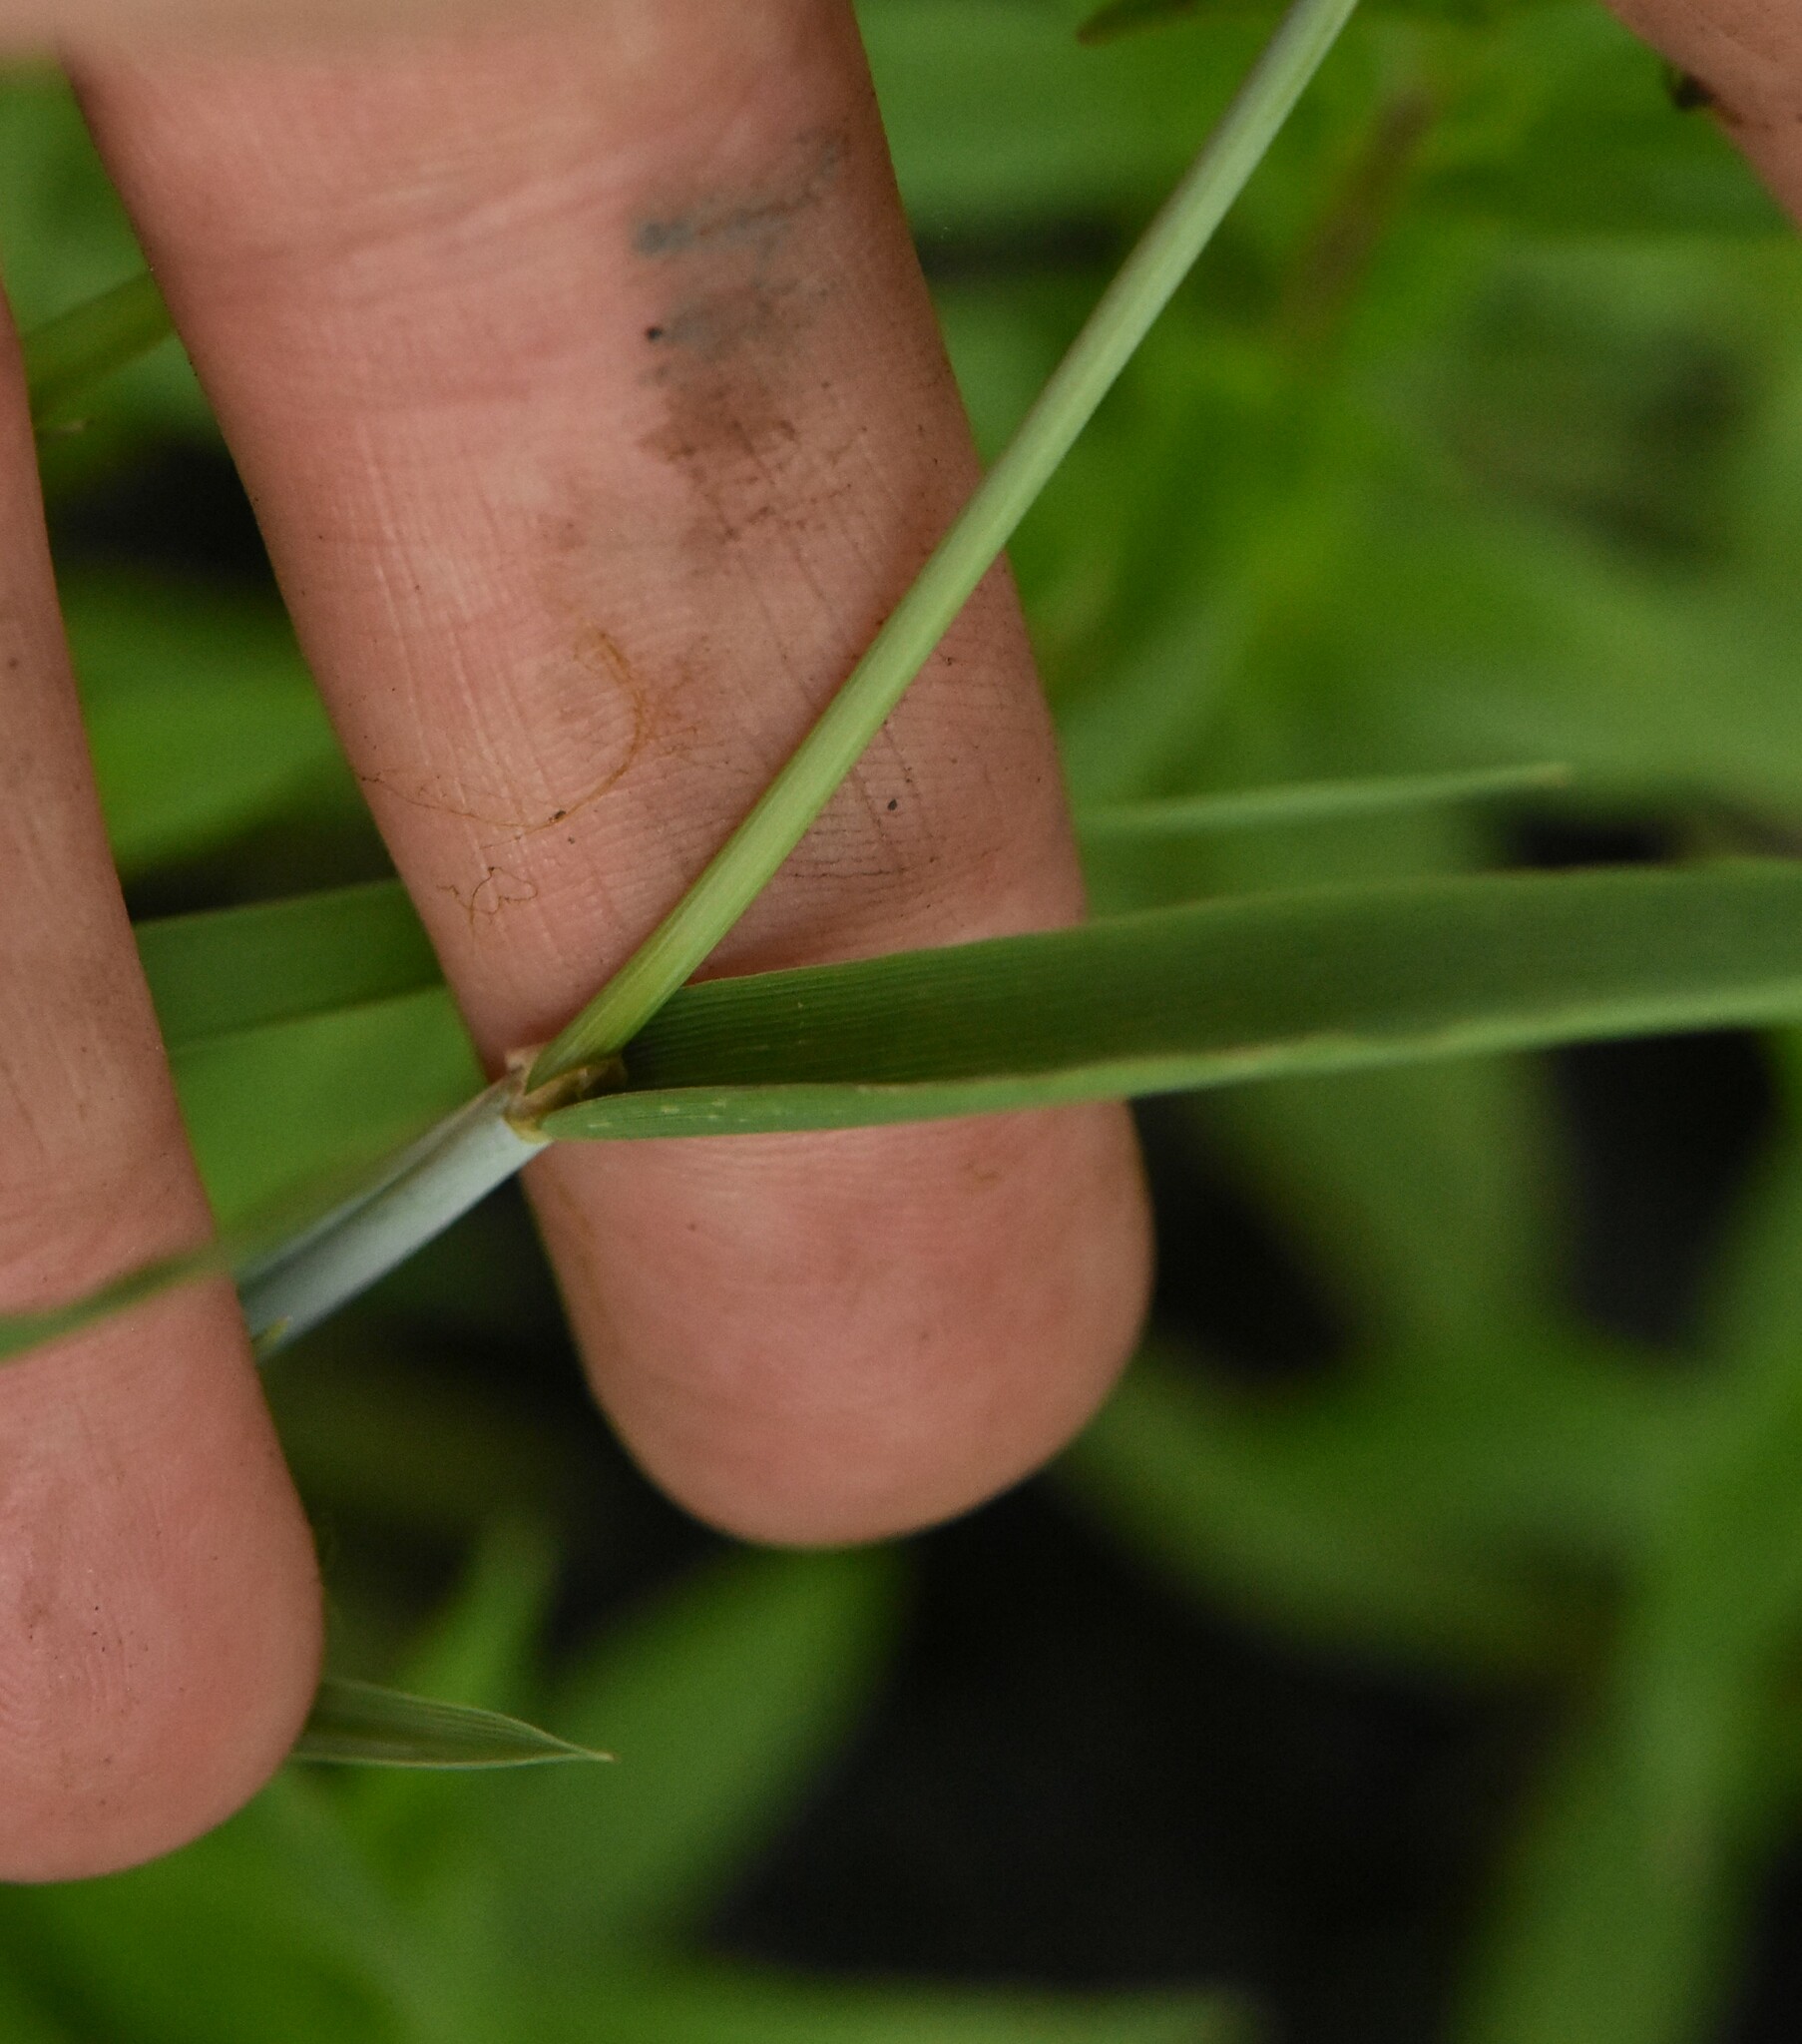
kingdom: Plantae
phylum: Tracheophyta
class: Liliopsida
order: Poales
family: Poaceae
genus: Alopecurus
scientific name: Alopecurus aequalis
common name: Orange foxtail
